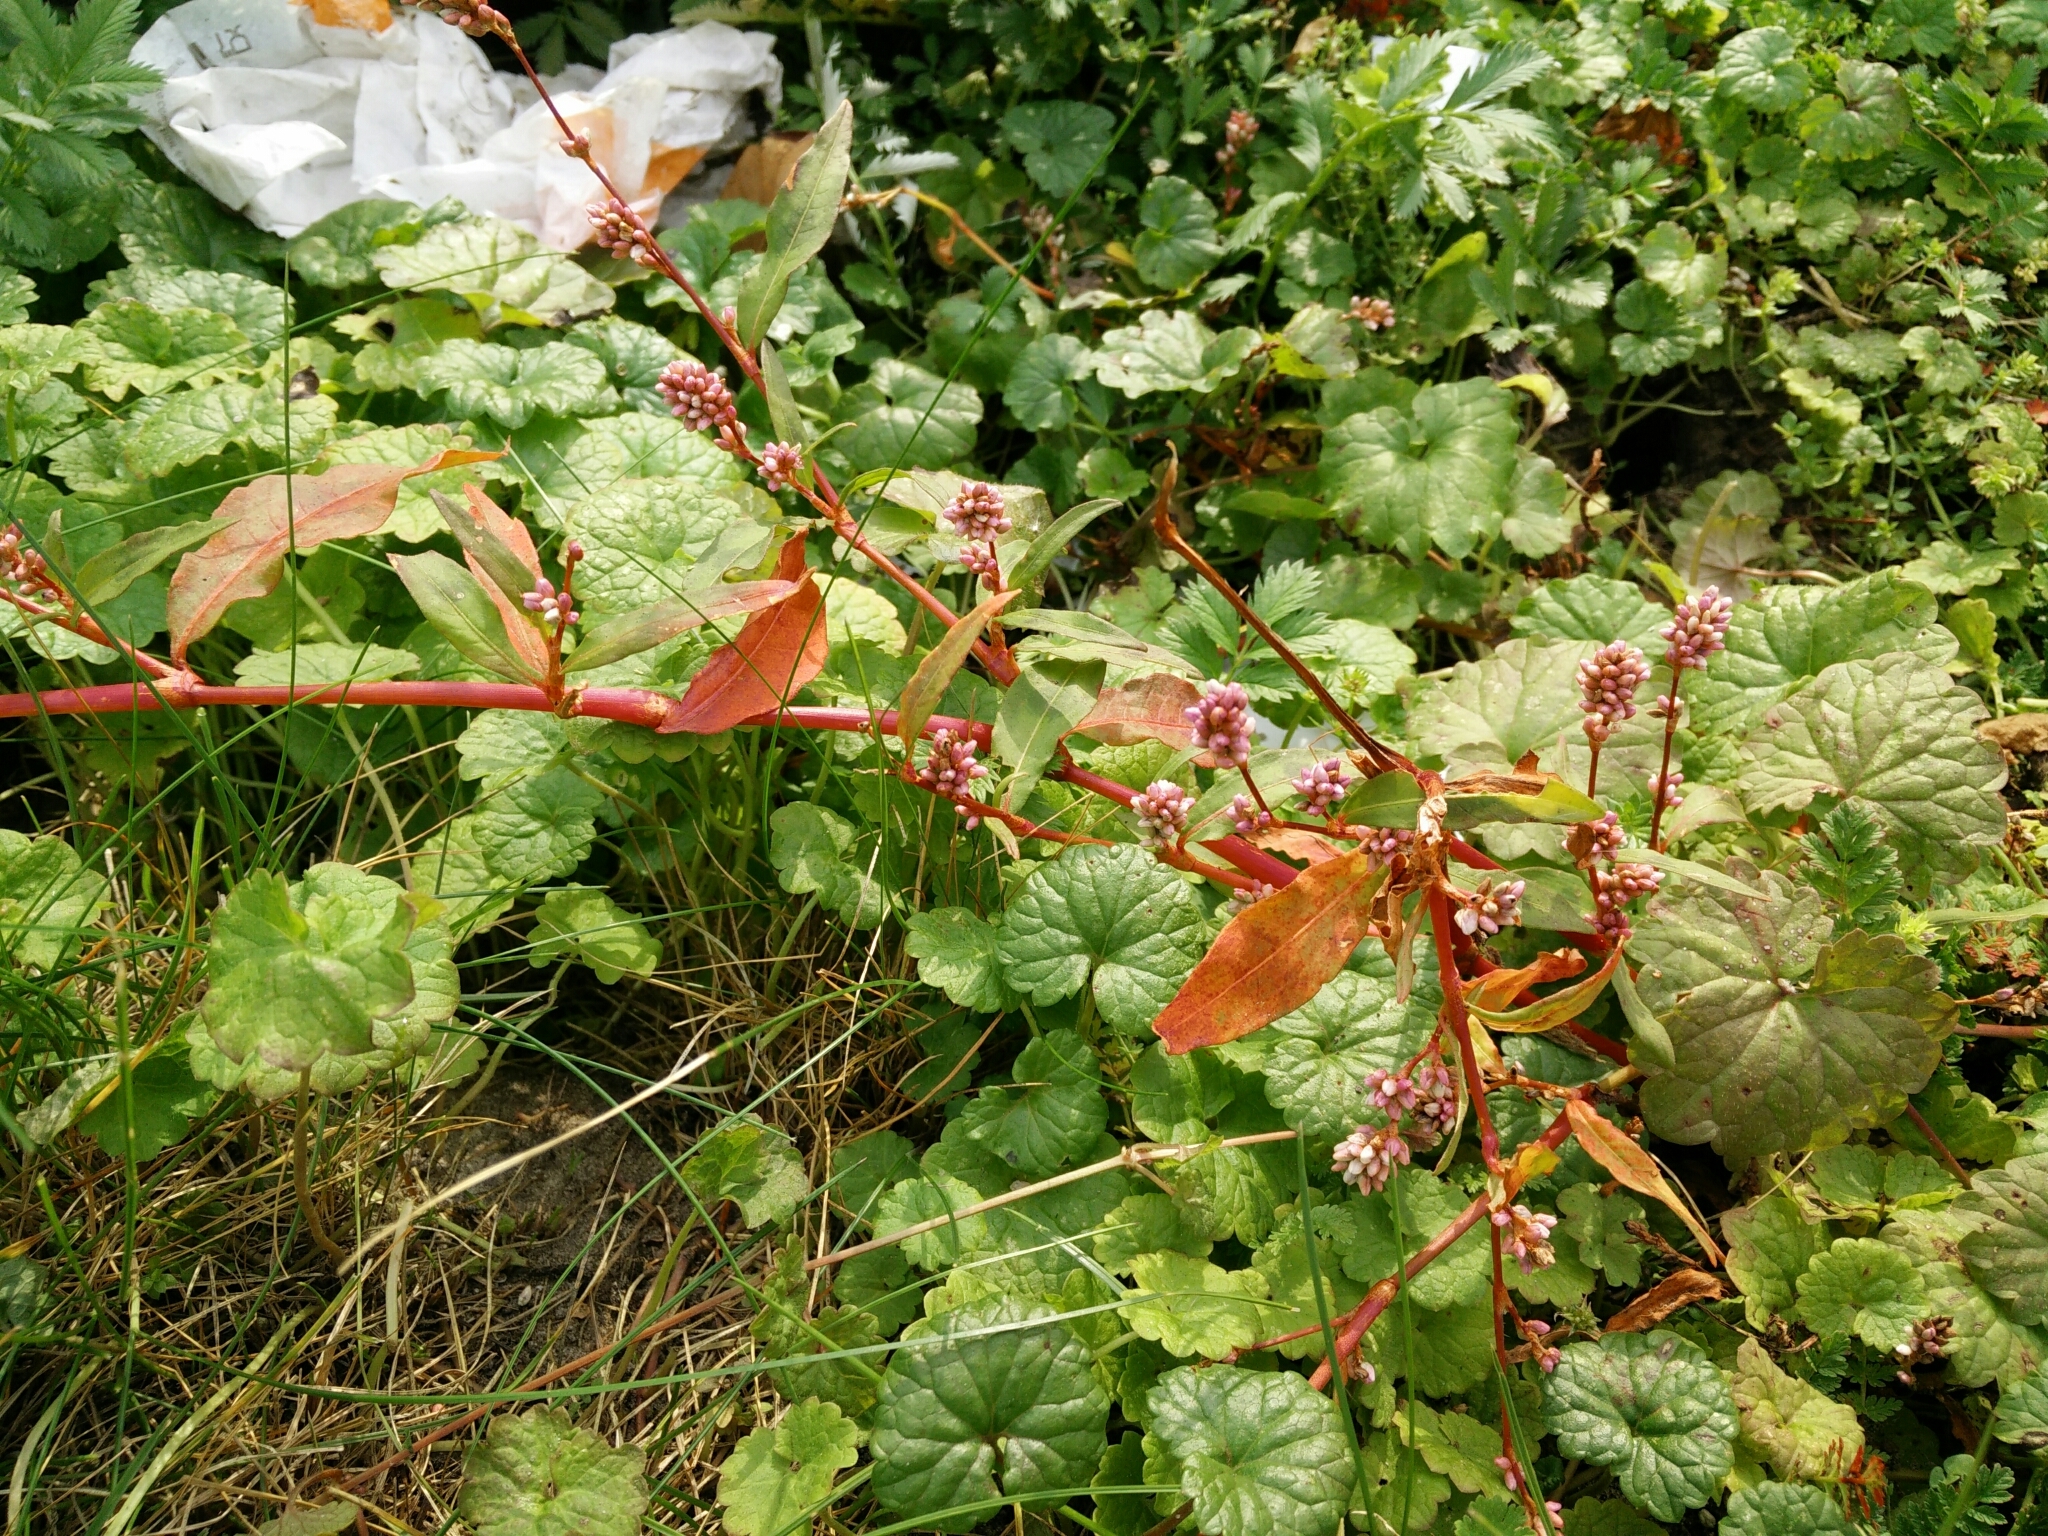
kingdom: Plantae
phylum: Tracheophyta
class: Magnoliopsida
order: Caryophyllales
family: Polygonaceae
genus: Persicaria
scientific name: Persicaria maculosa
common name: Redshank
